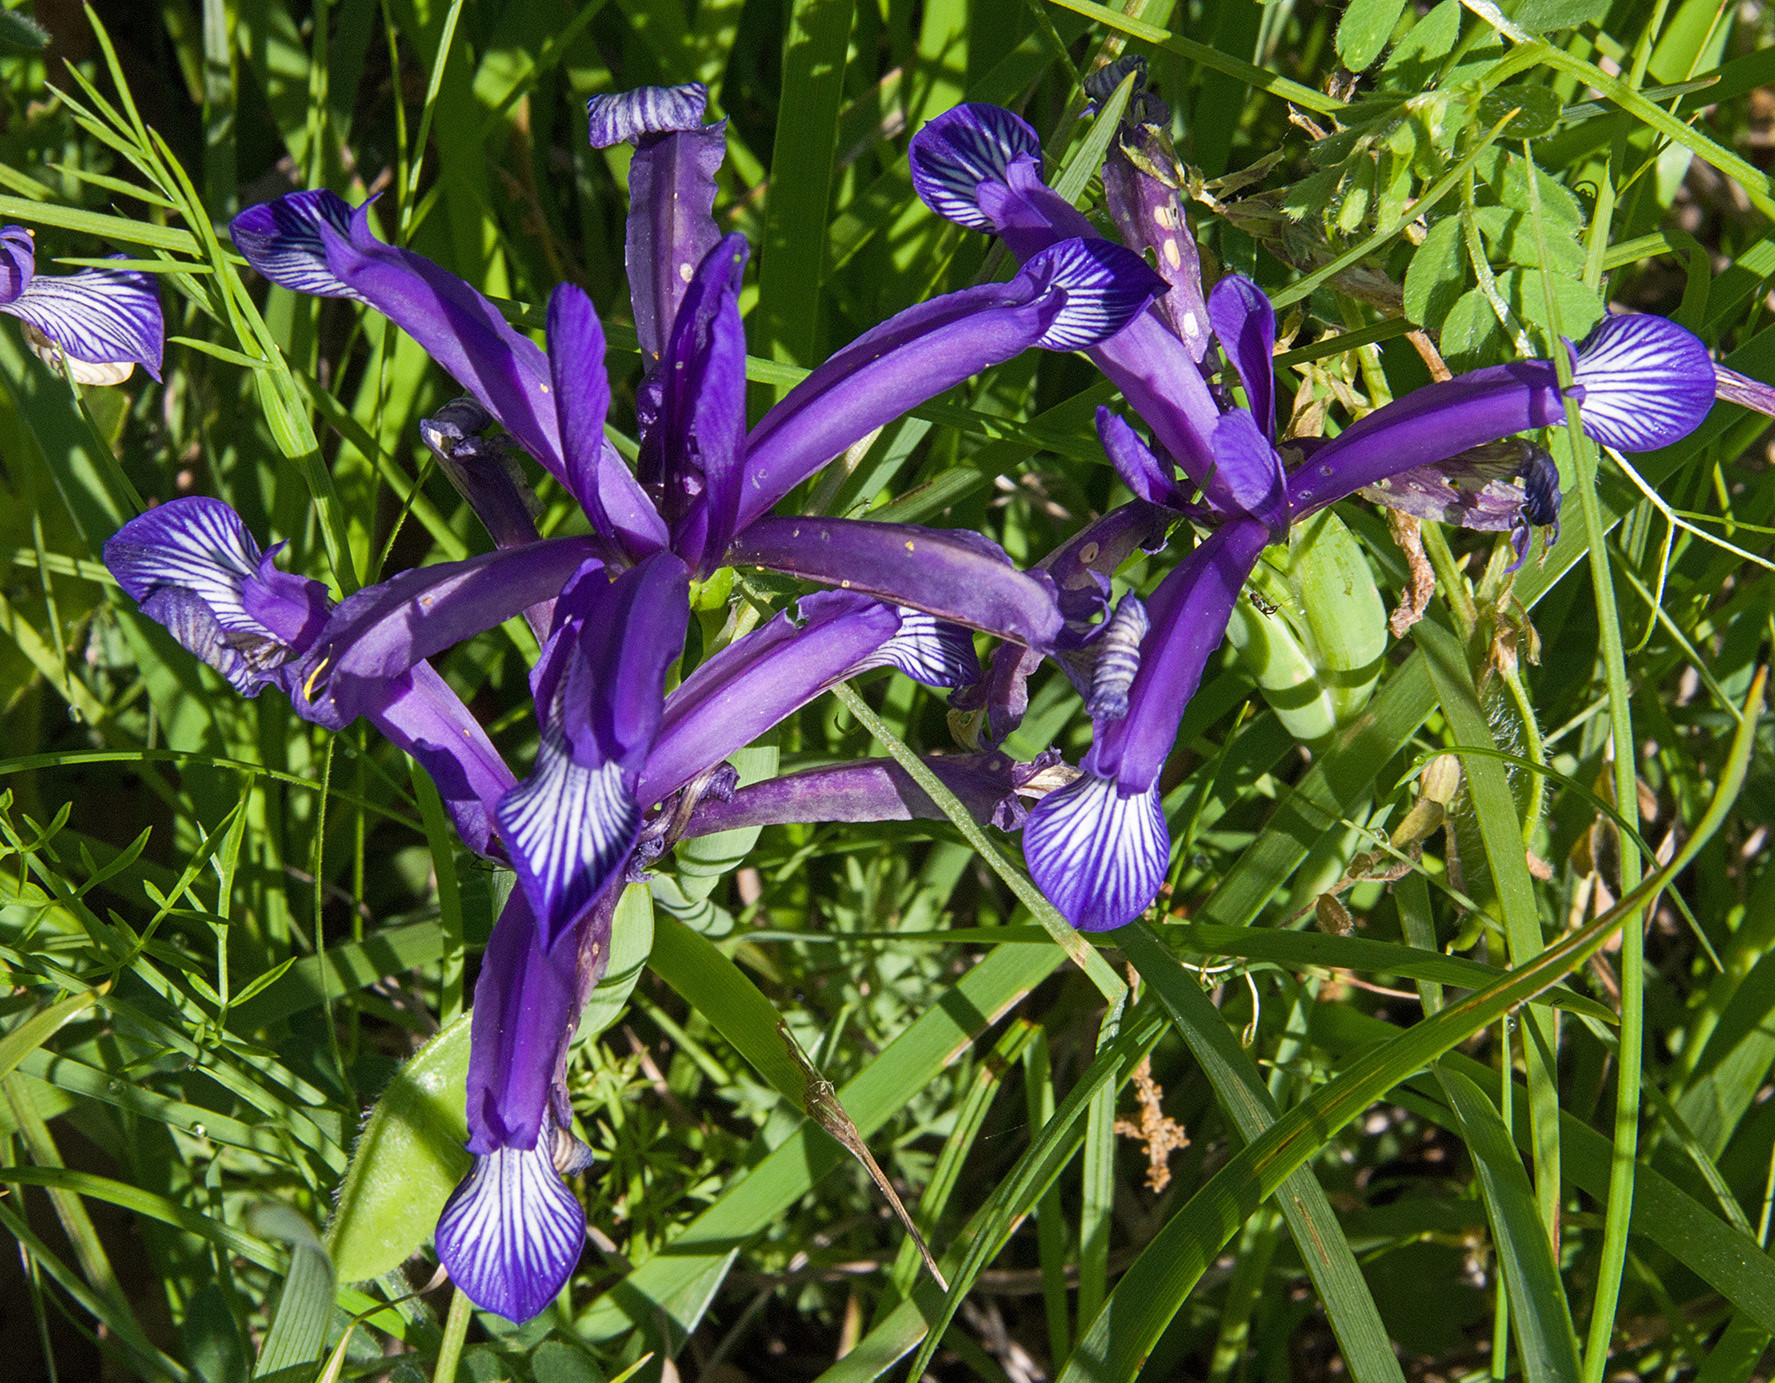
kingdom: Plantae
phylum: Tracheophyta
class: Liliopsida
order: Asparagales
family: Iridaceae
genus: Iris
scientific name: Iris sintenisii
